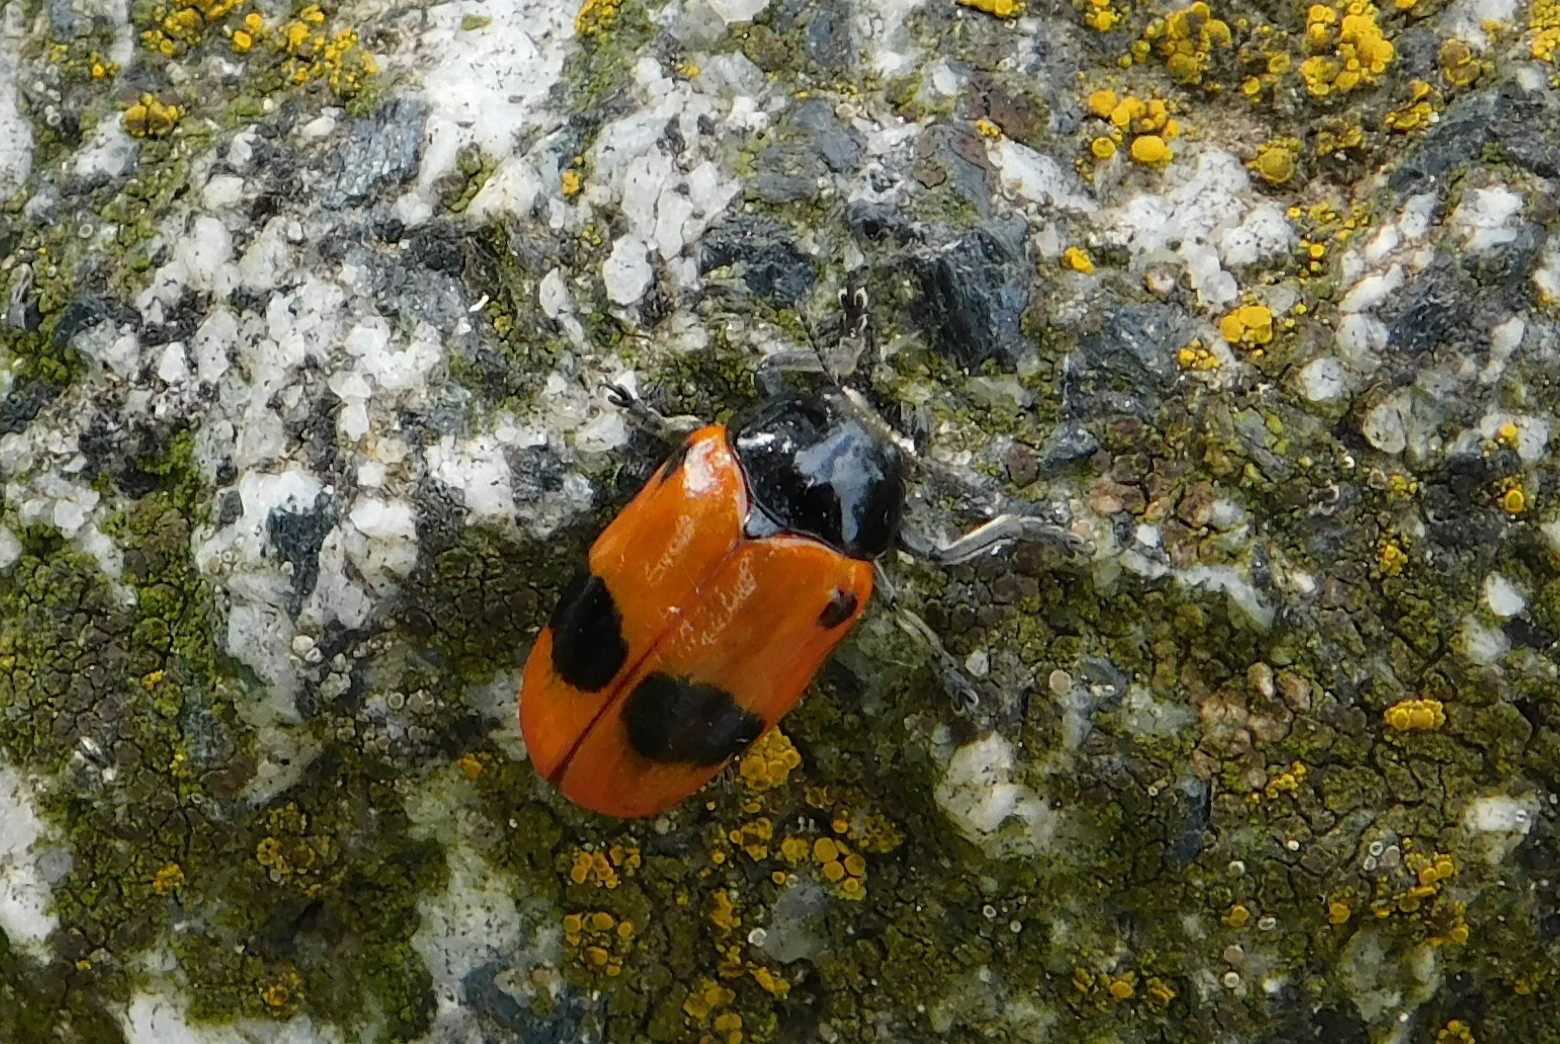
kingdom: Animalia
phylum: Arthropoda
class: Insecta
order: Coleoptera
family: Chrysomelidae
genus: Clytra
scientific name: Clytra laeviuscula
